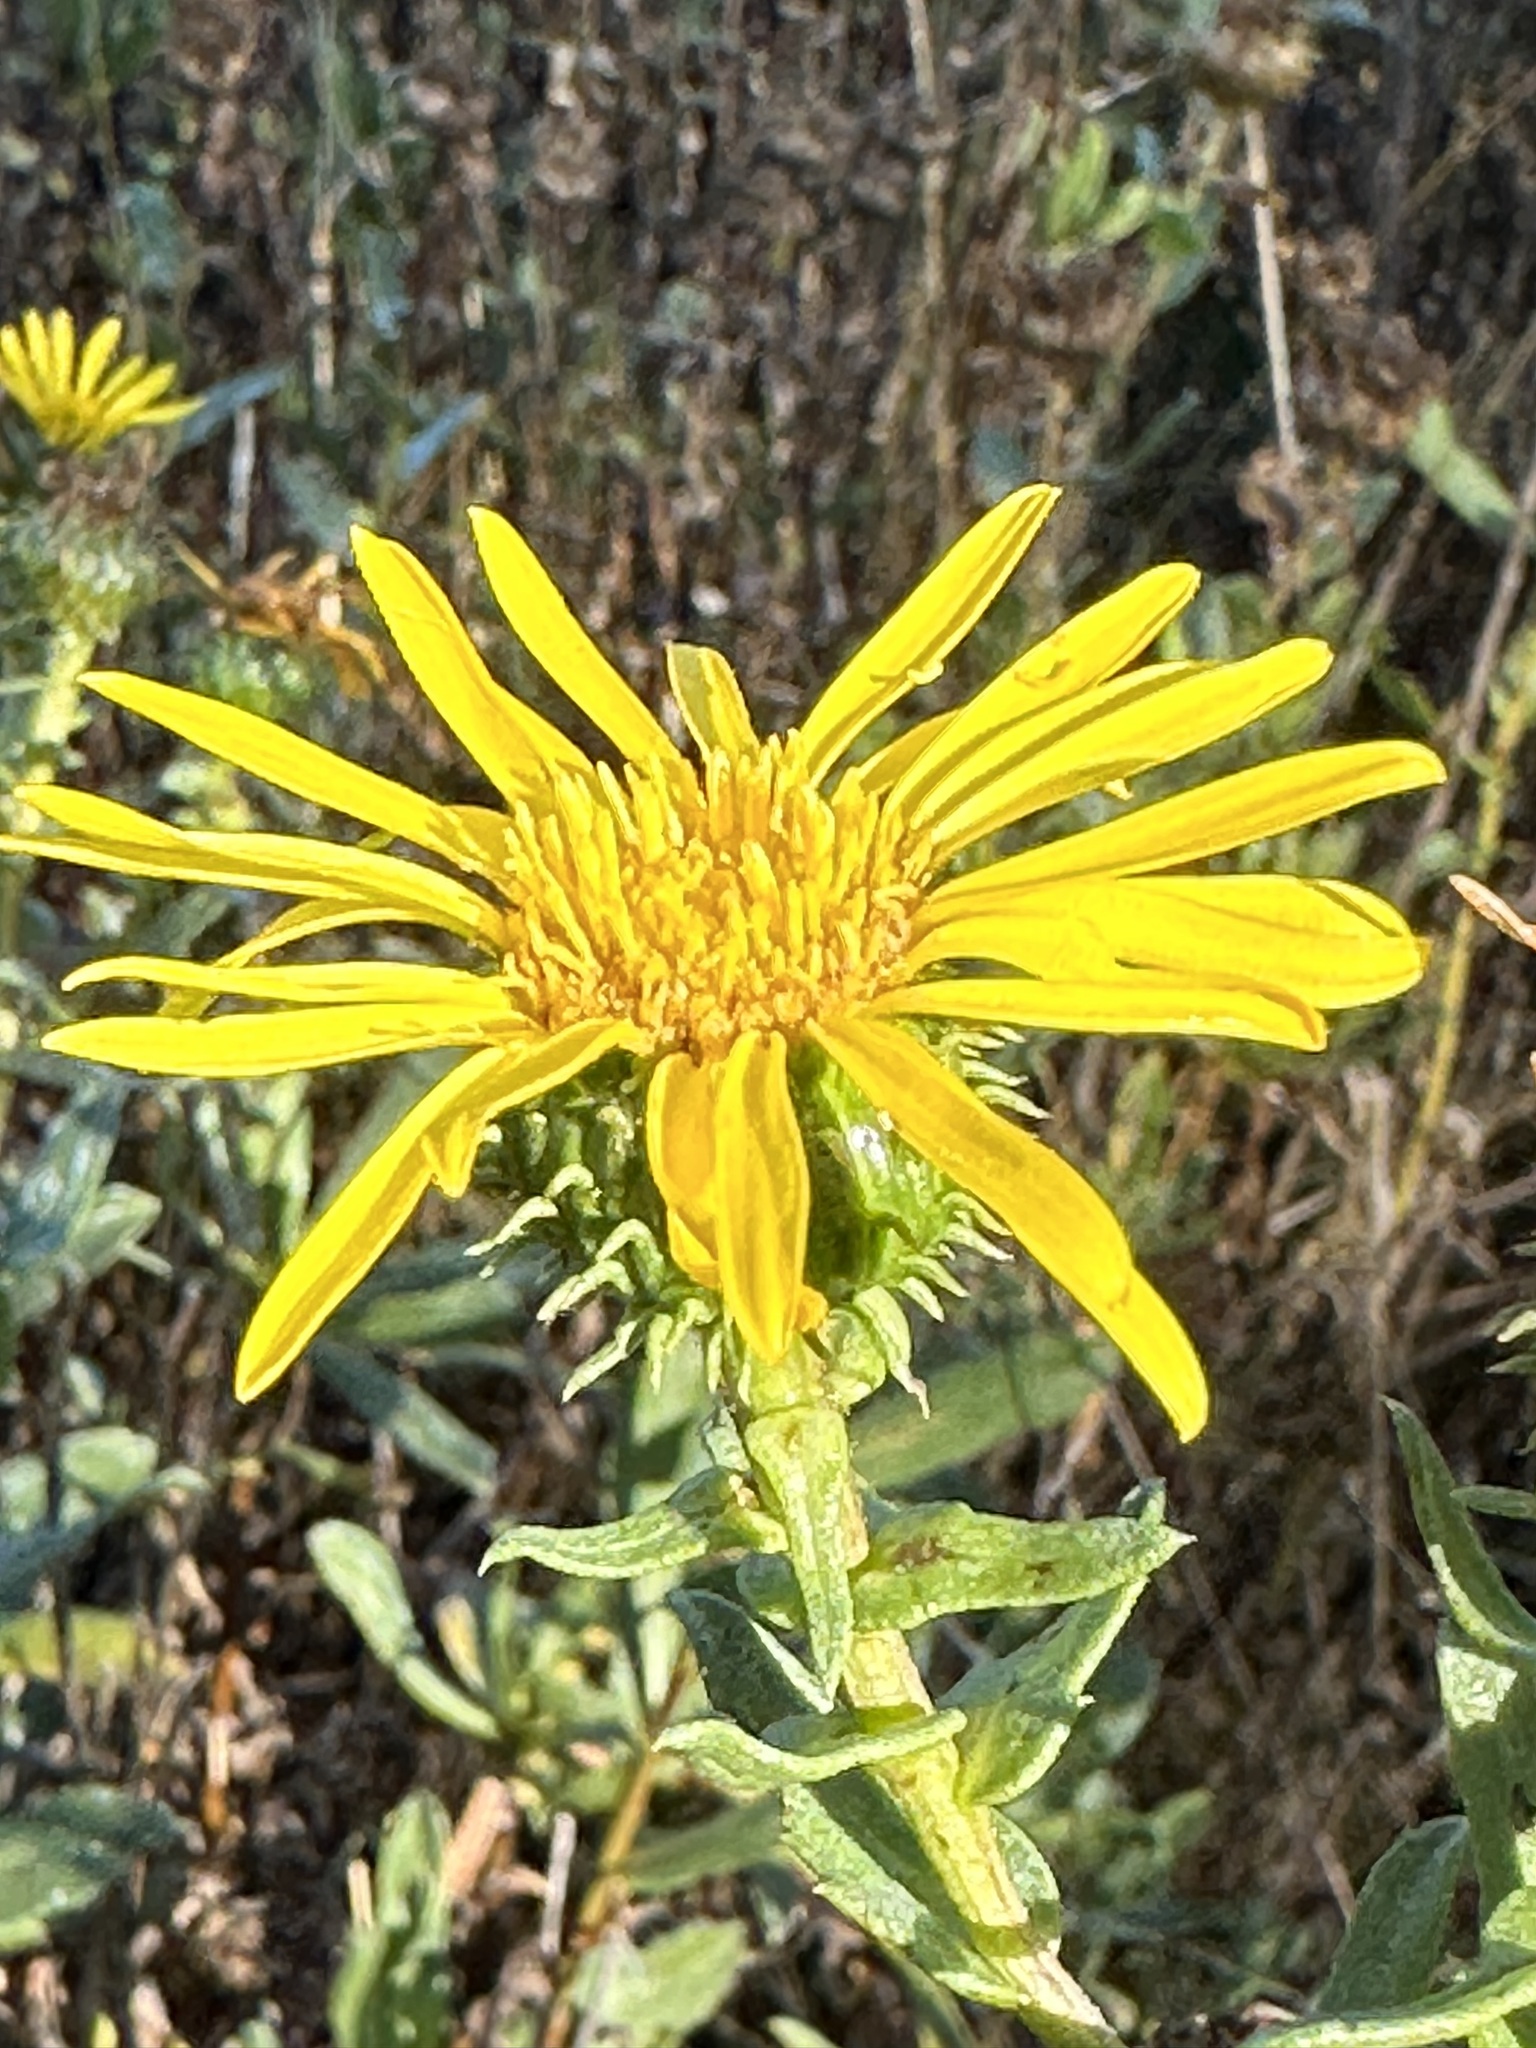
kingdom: Plantae
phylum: Tracheophyta
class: Magnoliopsida
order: Asterales
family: Asteraceae
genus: Grindelia
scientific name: Grindelia hirsutula
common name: Hairy gumweed
